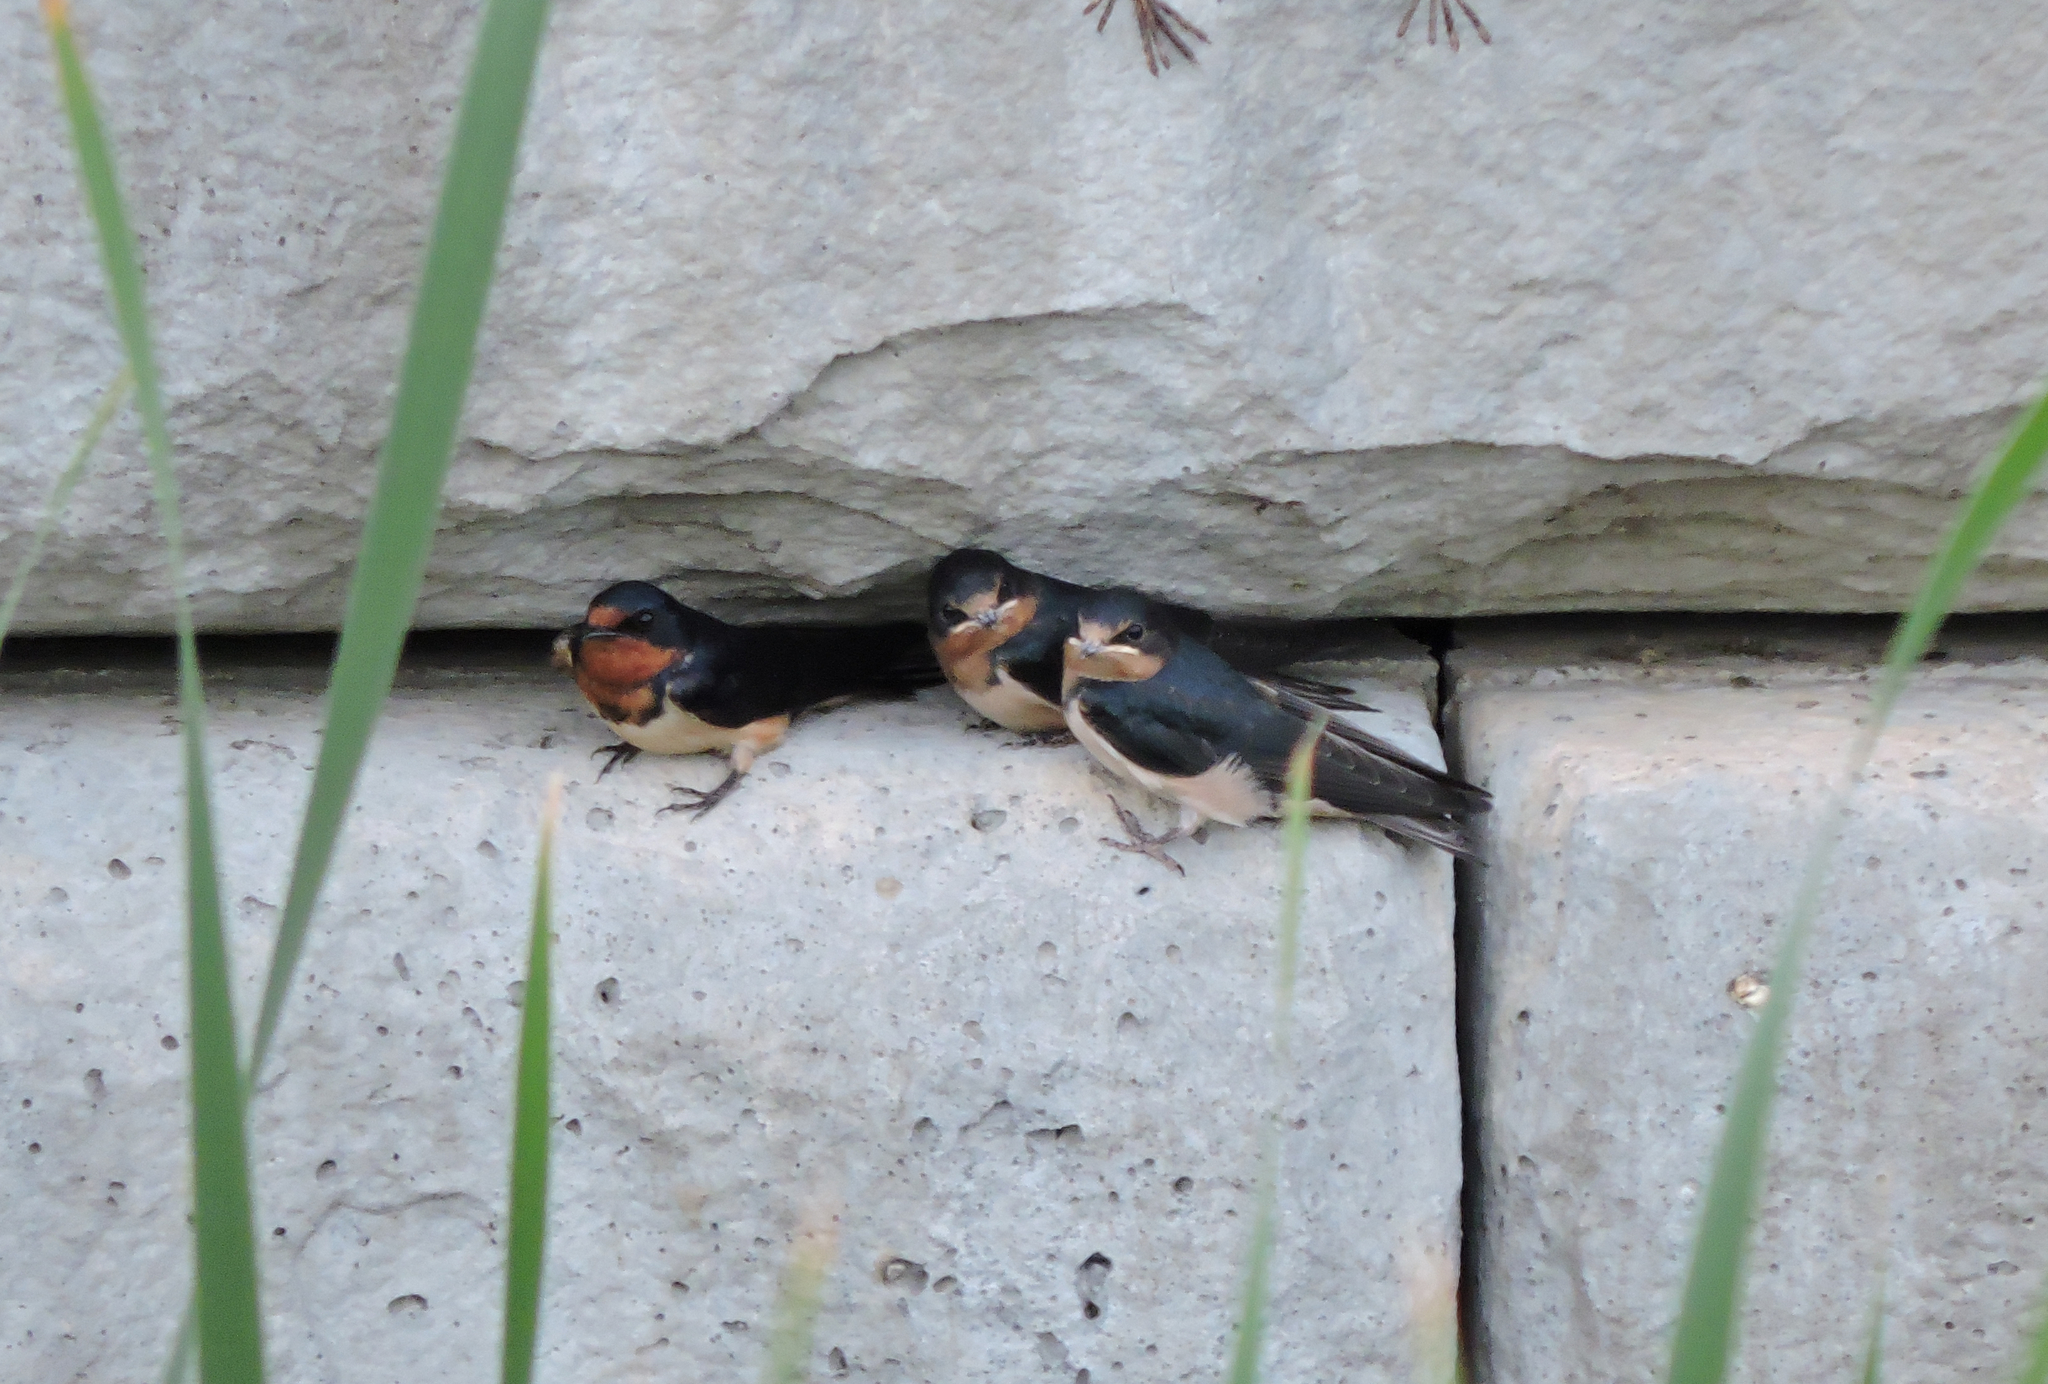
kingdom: Animalia
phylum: Chordata
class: Aves
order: Passeriformes
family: Hirundinidae
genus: Hirundo
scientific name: Hirundo rustica
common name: Barn swallow
